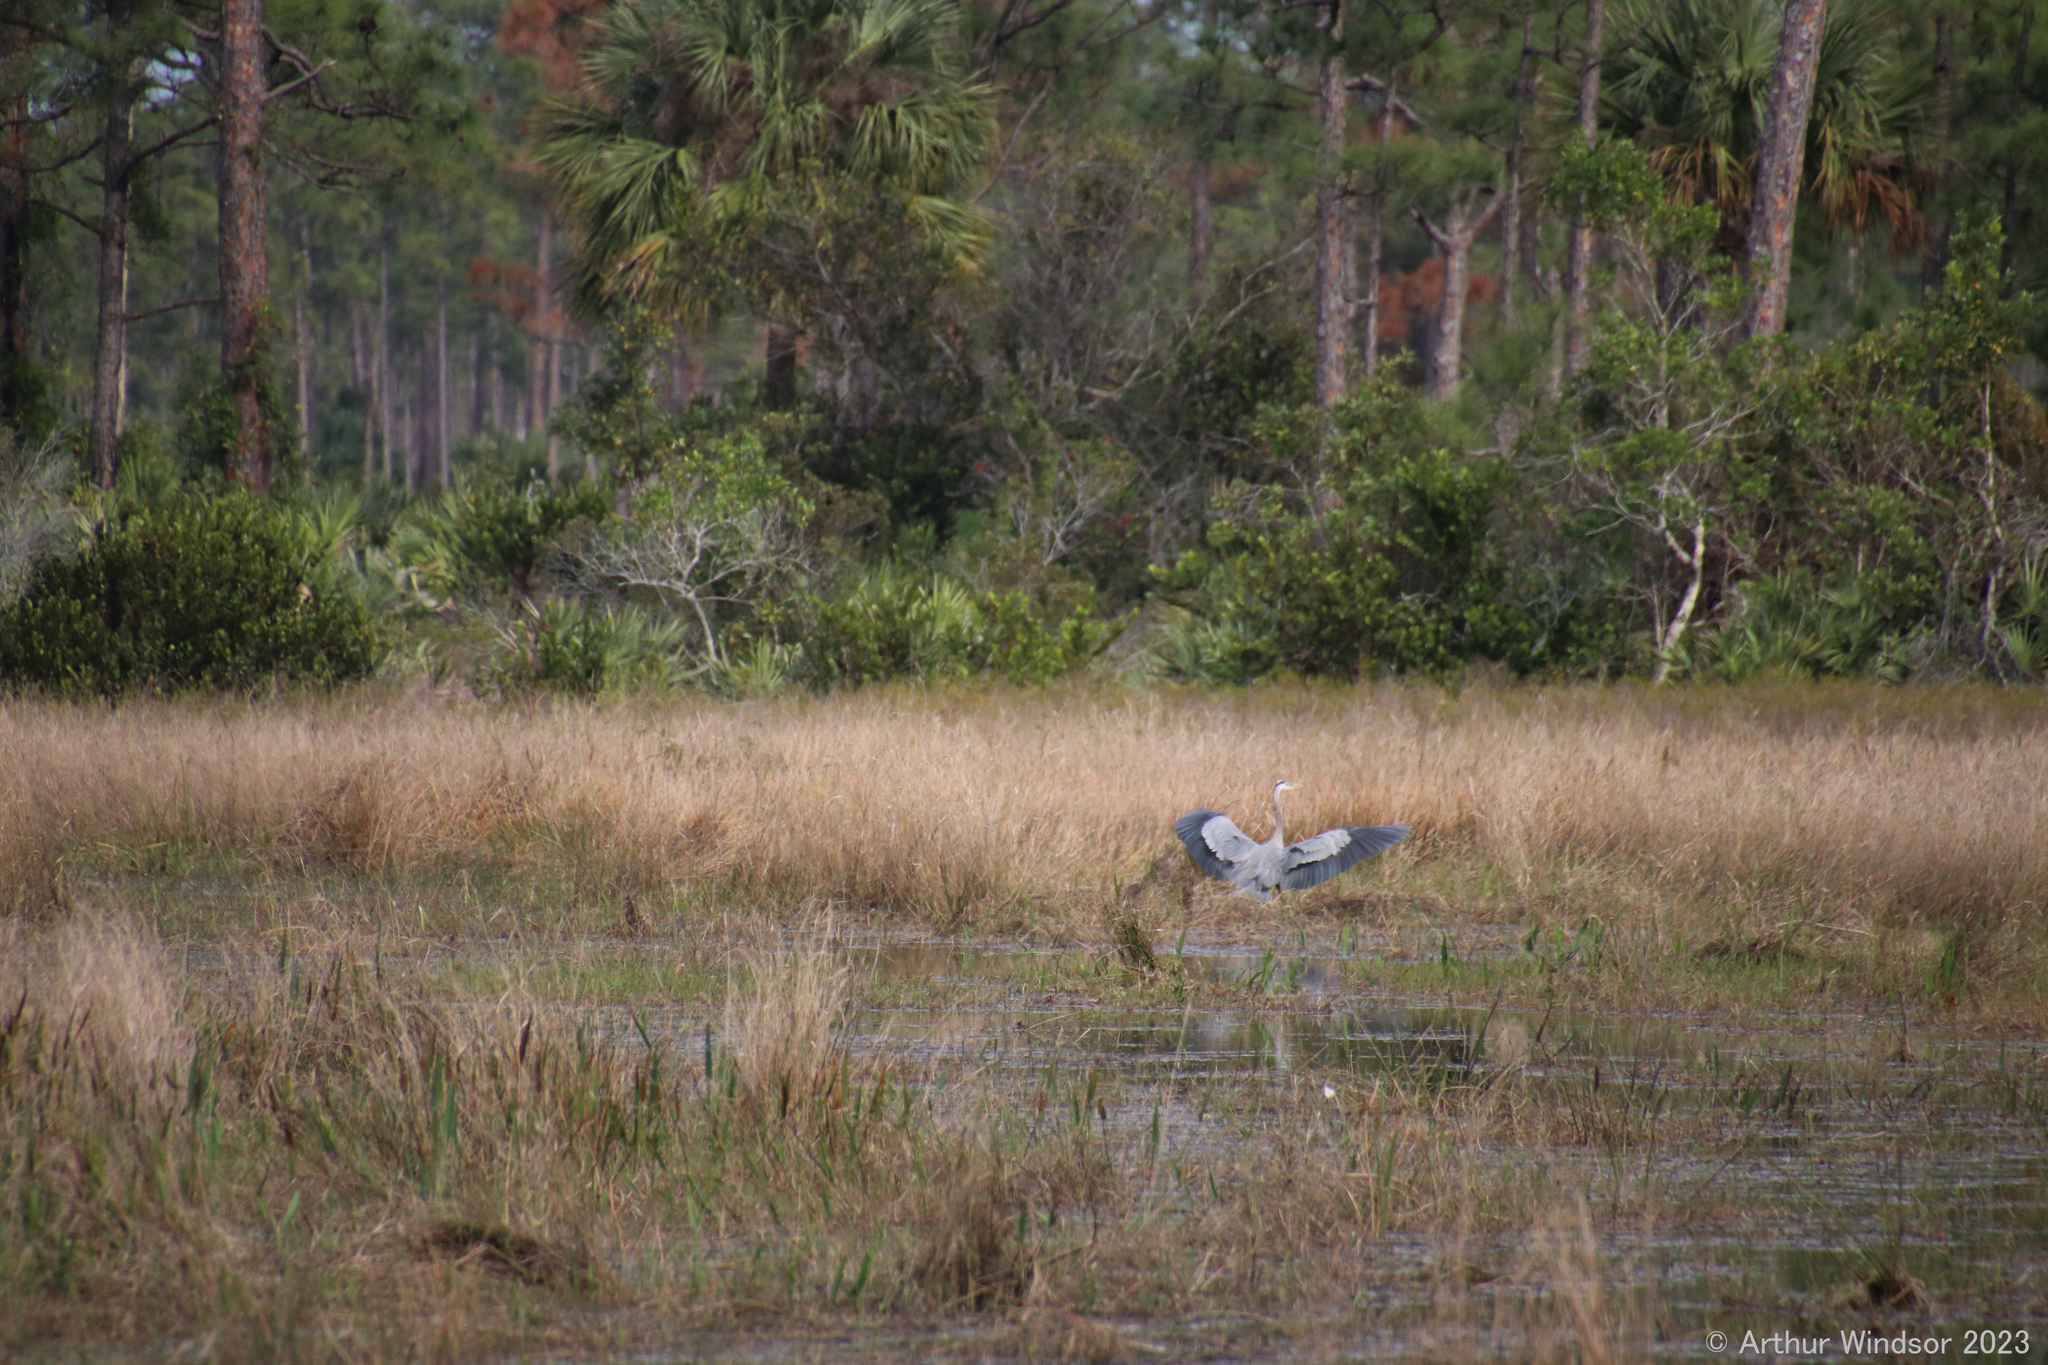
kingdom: Animalia
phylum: Chordata
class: Aves
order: Pelecaniformes
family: Ardeidae
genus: Ardea
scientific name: Ardea herodias
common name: Great blue heron
